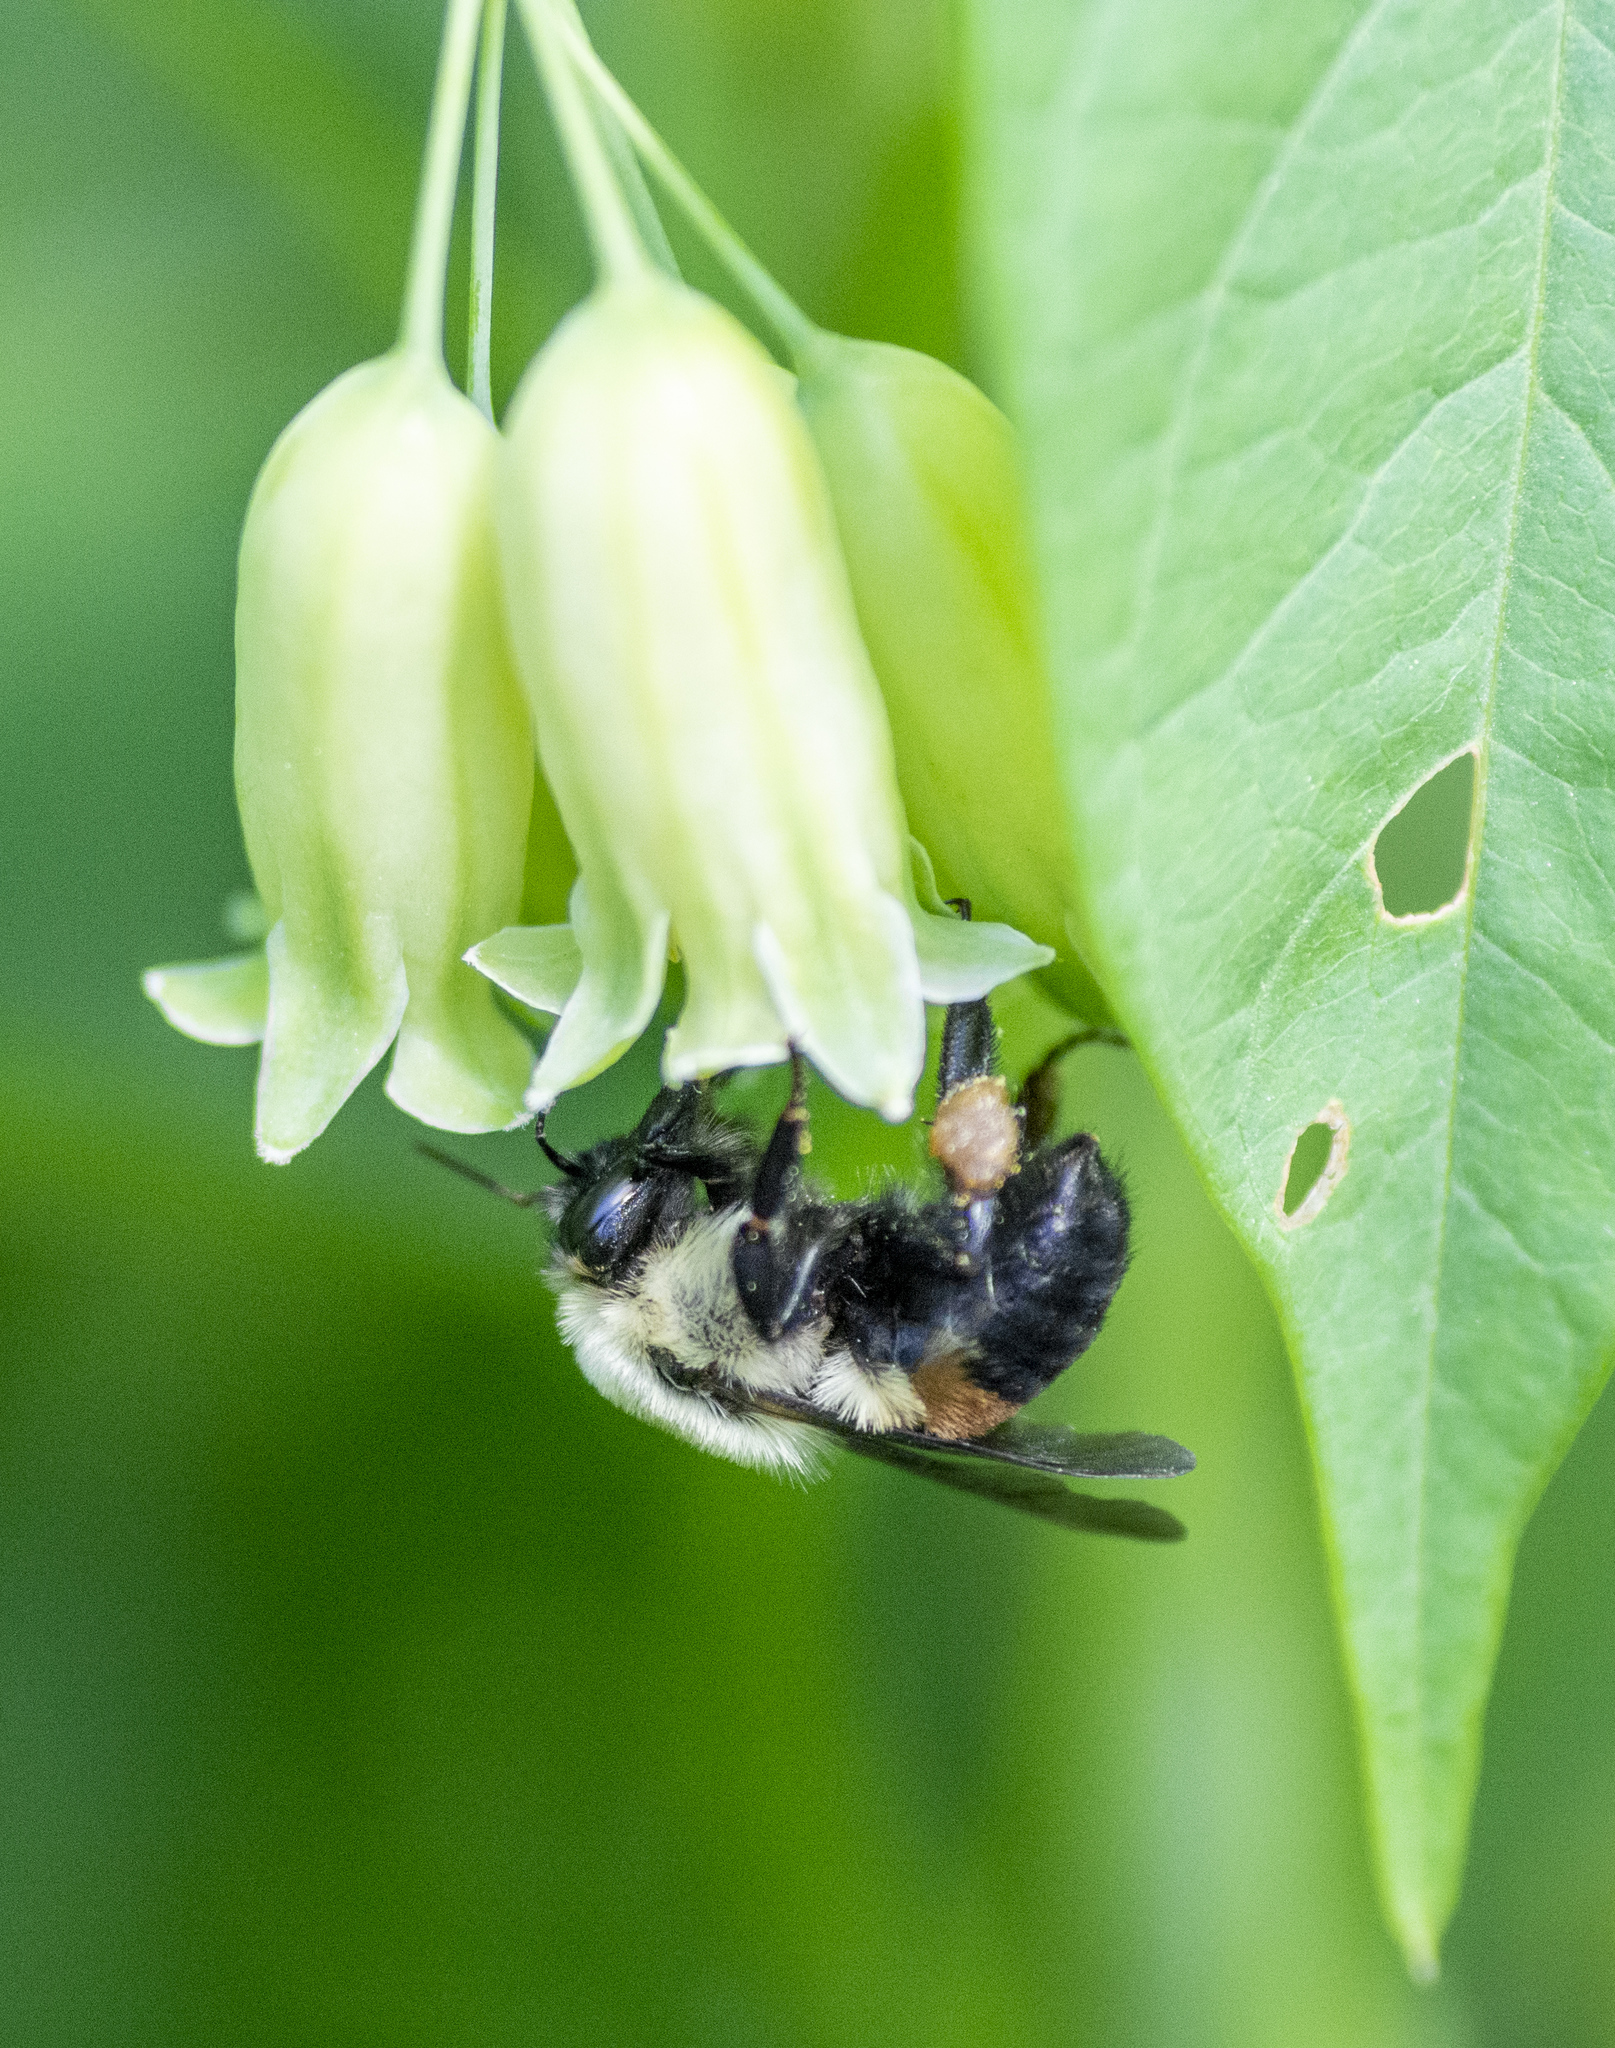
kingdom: Animalia
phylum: Arthropoda
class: Insecta
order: Hymenoptera
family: Apidae
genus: Bombus
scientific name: Bombus griseocollis
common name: Brown-belted bumble bee
